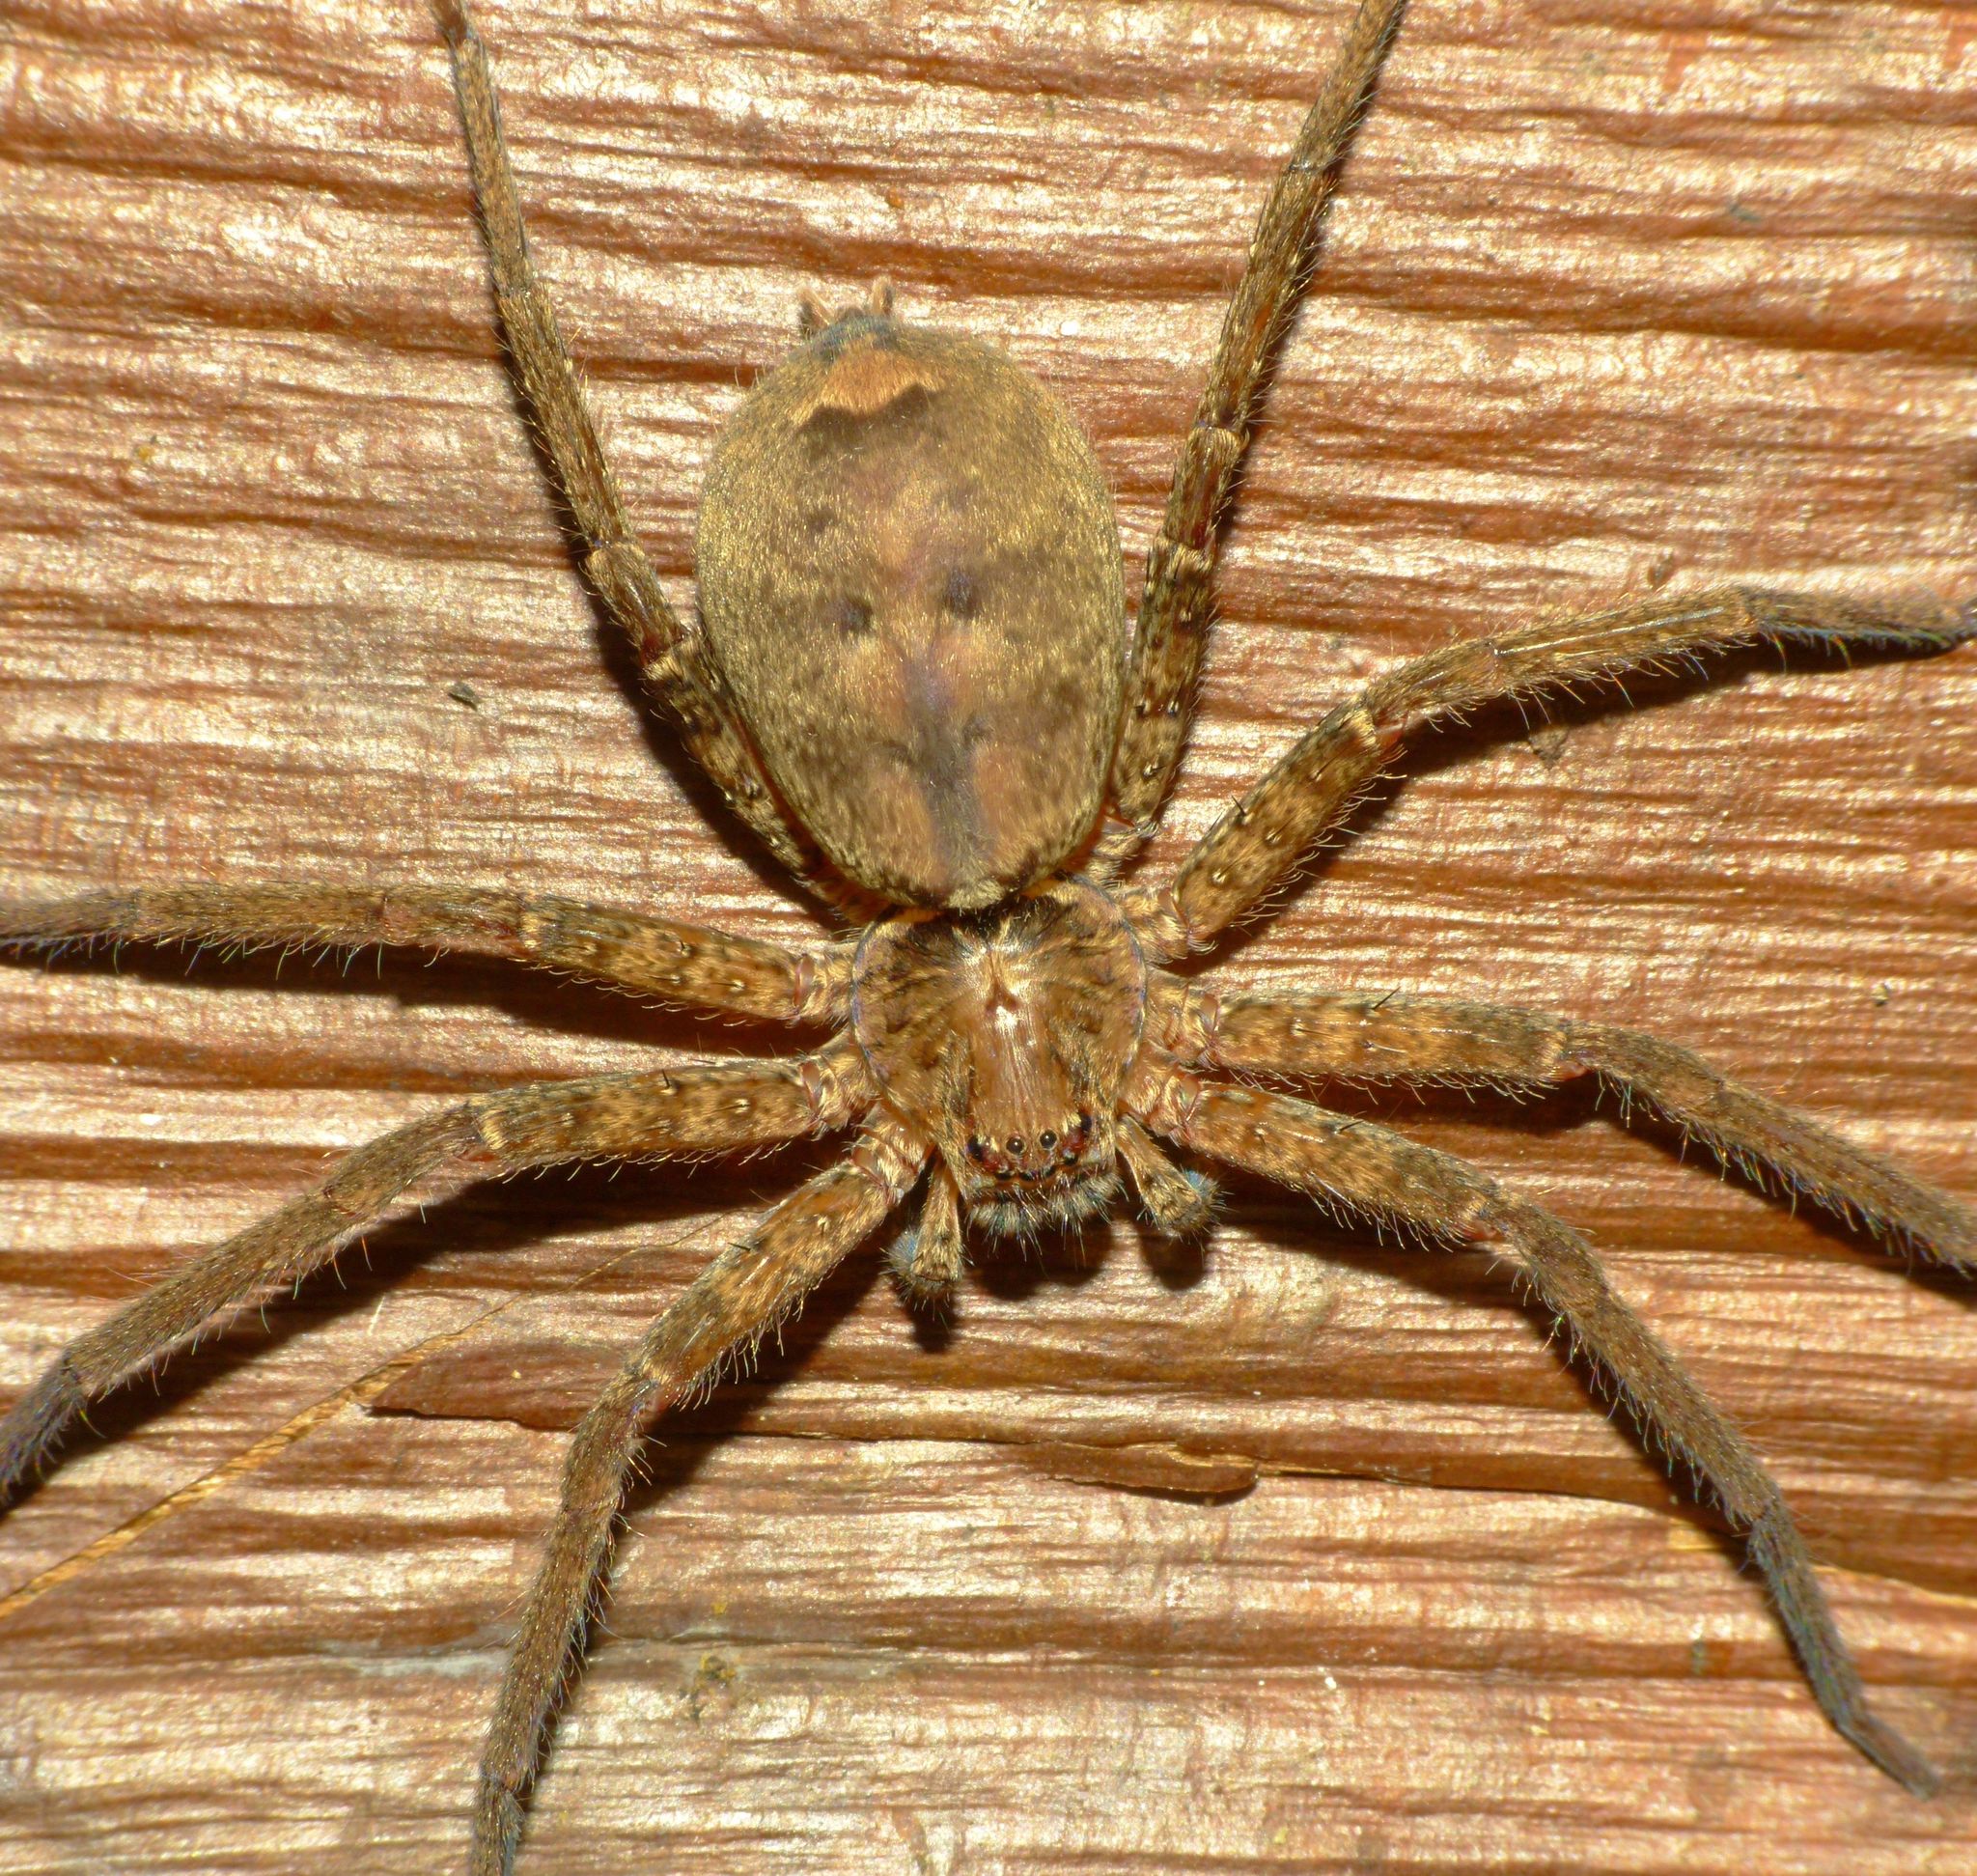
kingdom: Animalia
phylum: Arthropoda
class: Arachnida
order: Araneae
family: Sparassidae
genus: Heteropoda
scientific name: Heteropoda jugulans
